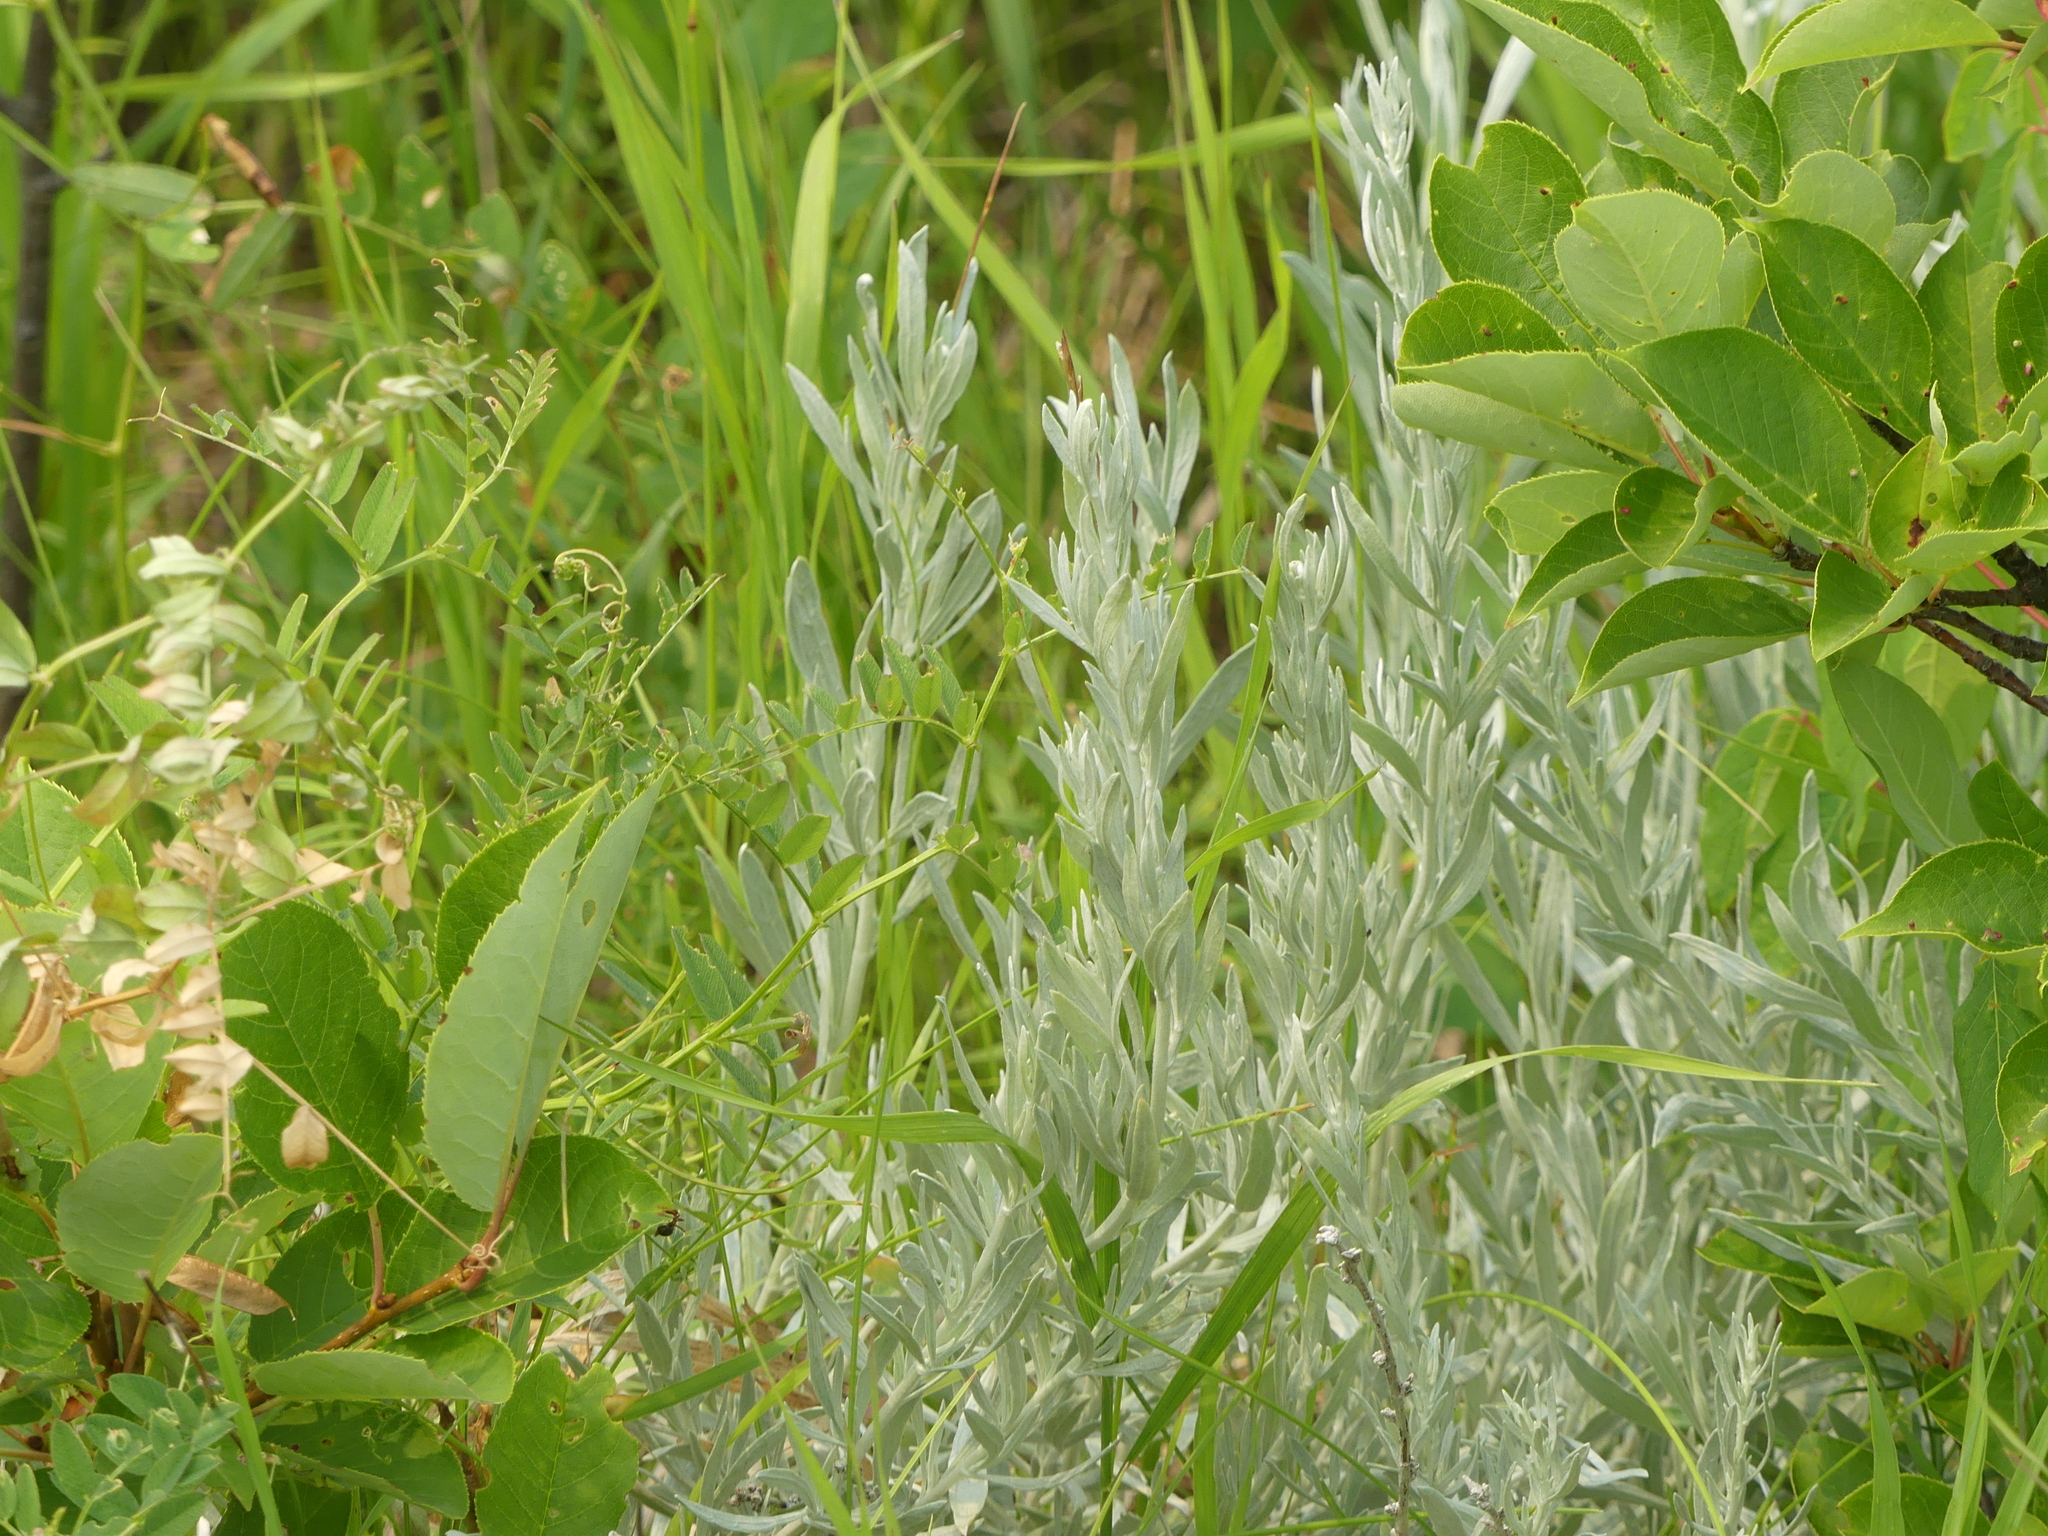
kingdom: Plantae
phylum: Tracheophyta
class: Magnoliopsida
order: Asterales
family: Asteraceae
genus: Artemisia
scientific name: Artemisia ludoviciana
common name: Western mugwort
